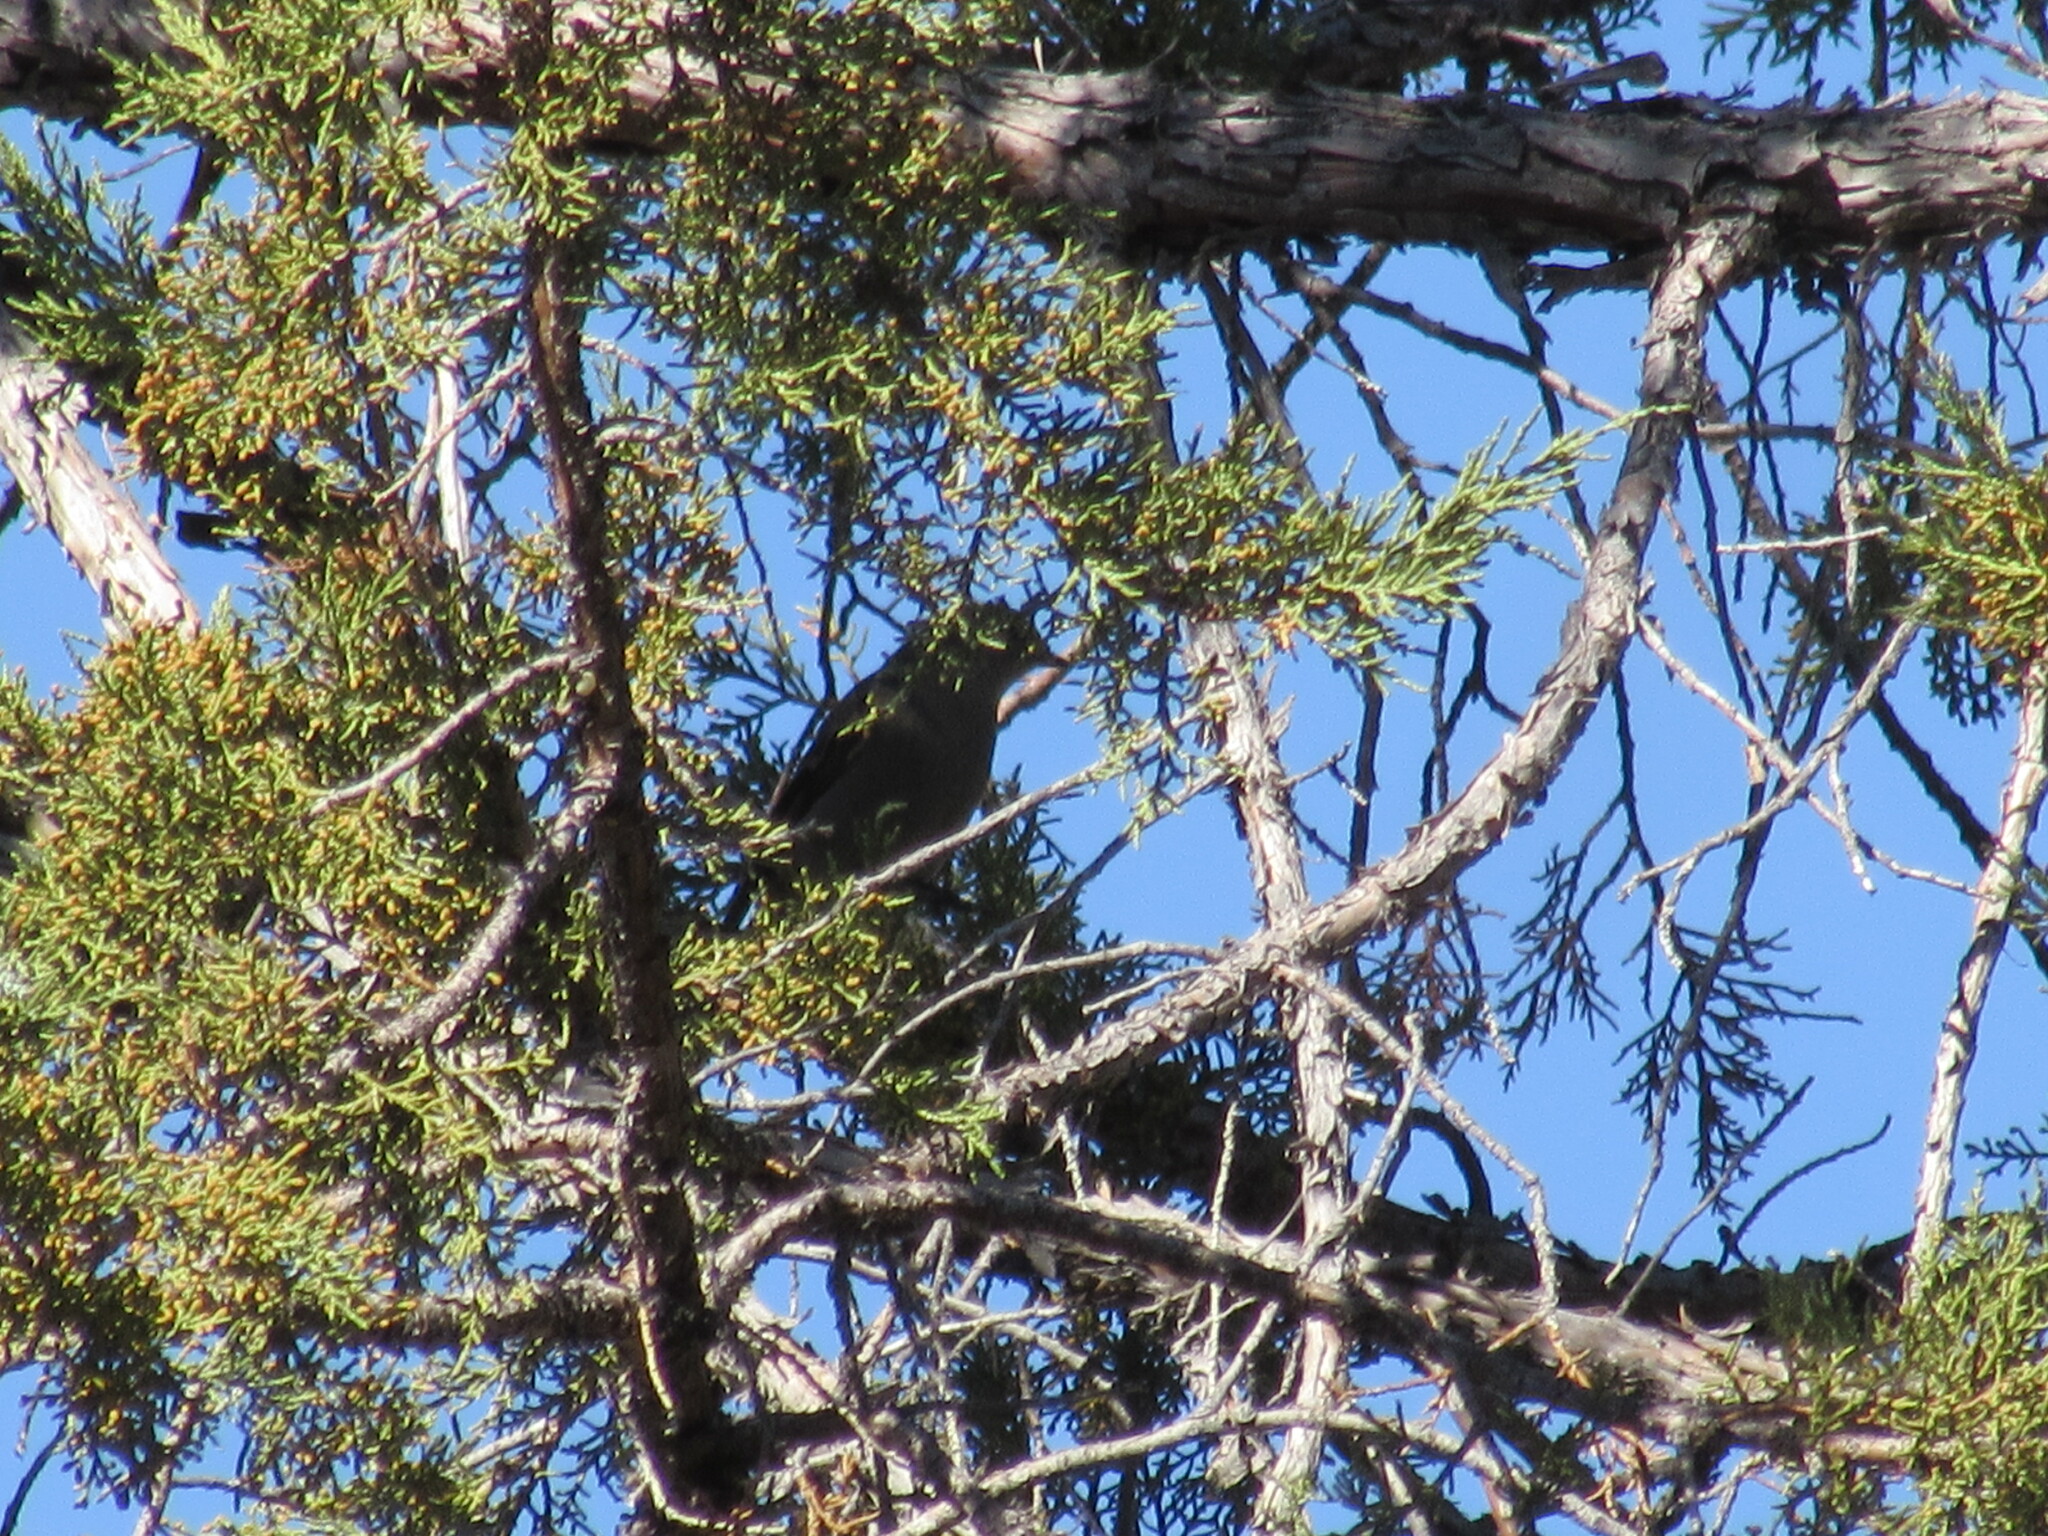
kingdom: Animalia
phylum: Chordata
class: Aves
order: Passeriformes
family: Turdidae
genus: Myadestes
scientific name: Myadestes townsendi
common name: Townsend's solitaire
